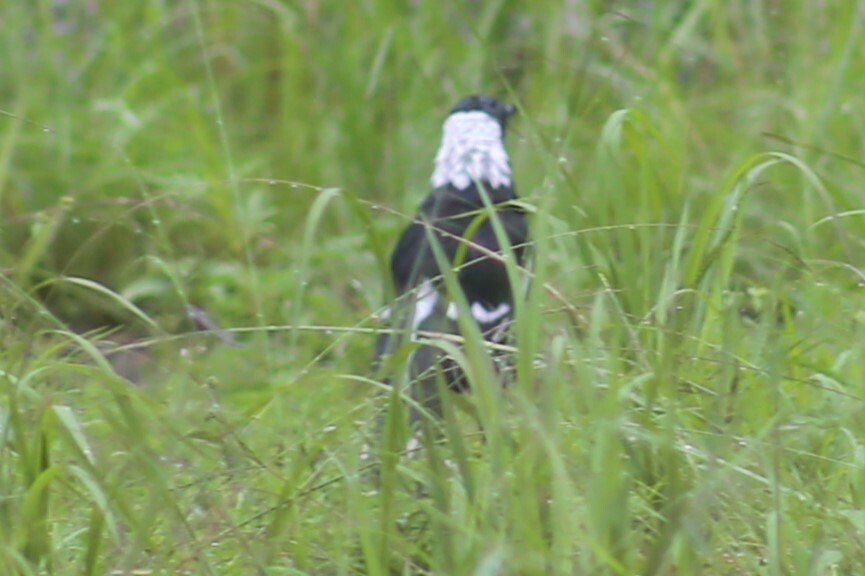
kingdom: Animalia
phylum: Chordata
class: Aves
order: Passeriformes
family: Cracticidae
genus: Gymnorhina
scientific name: Gymnorhina tibicen
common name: Australian magpie
